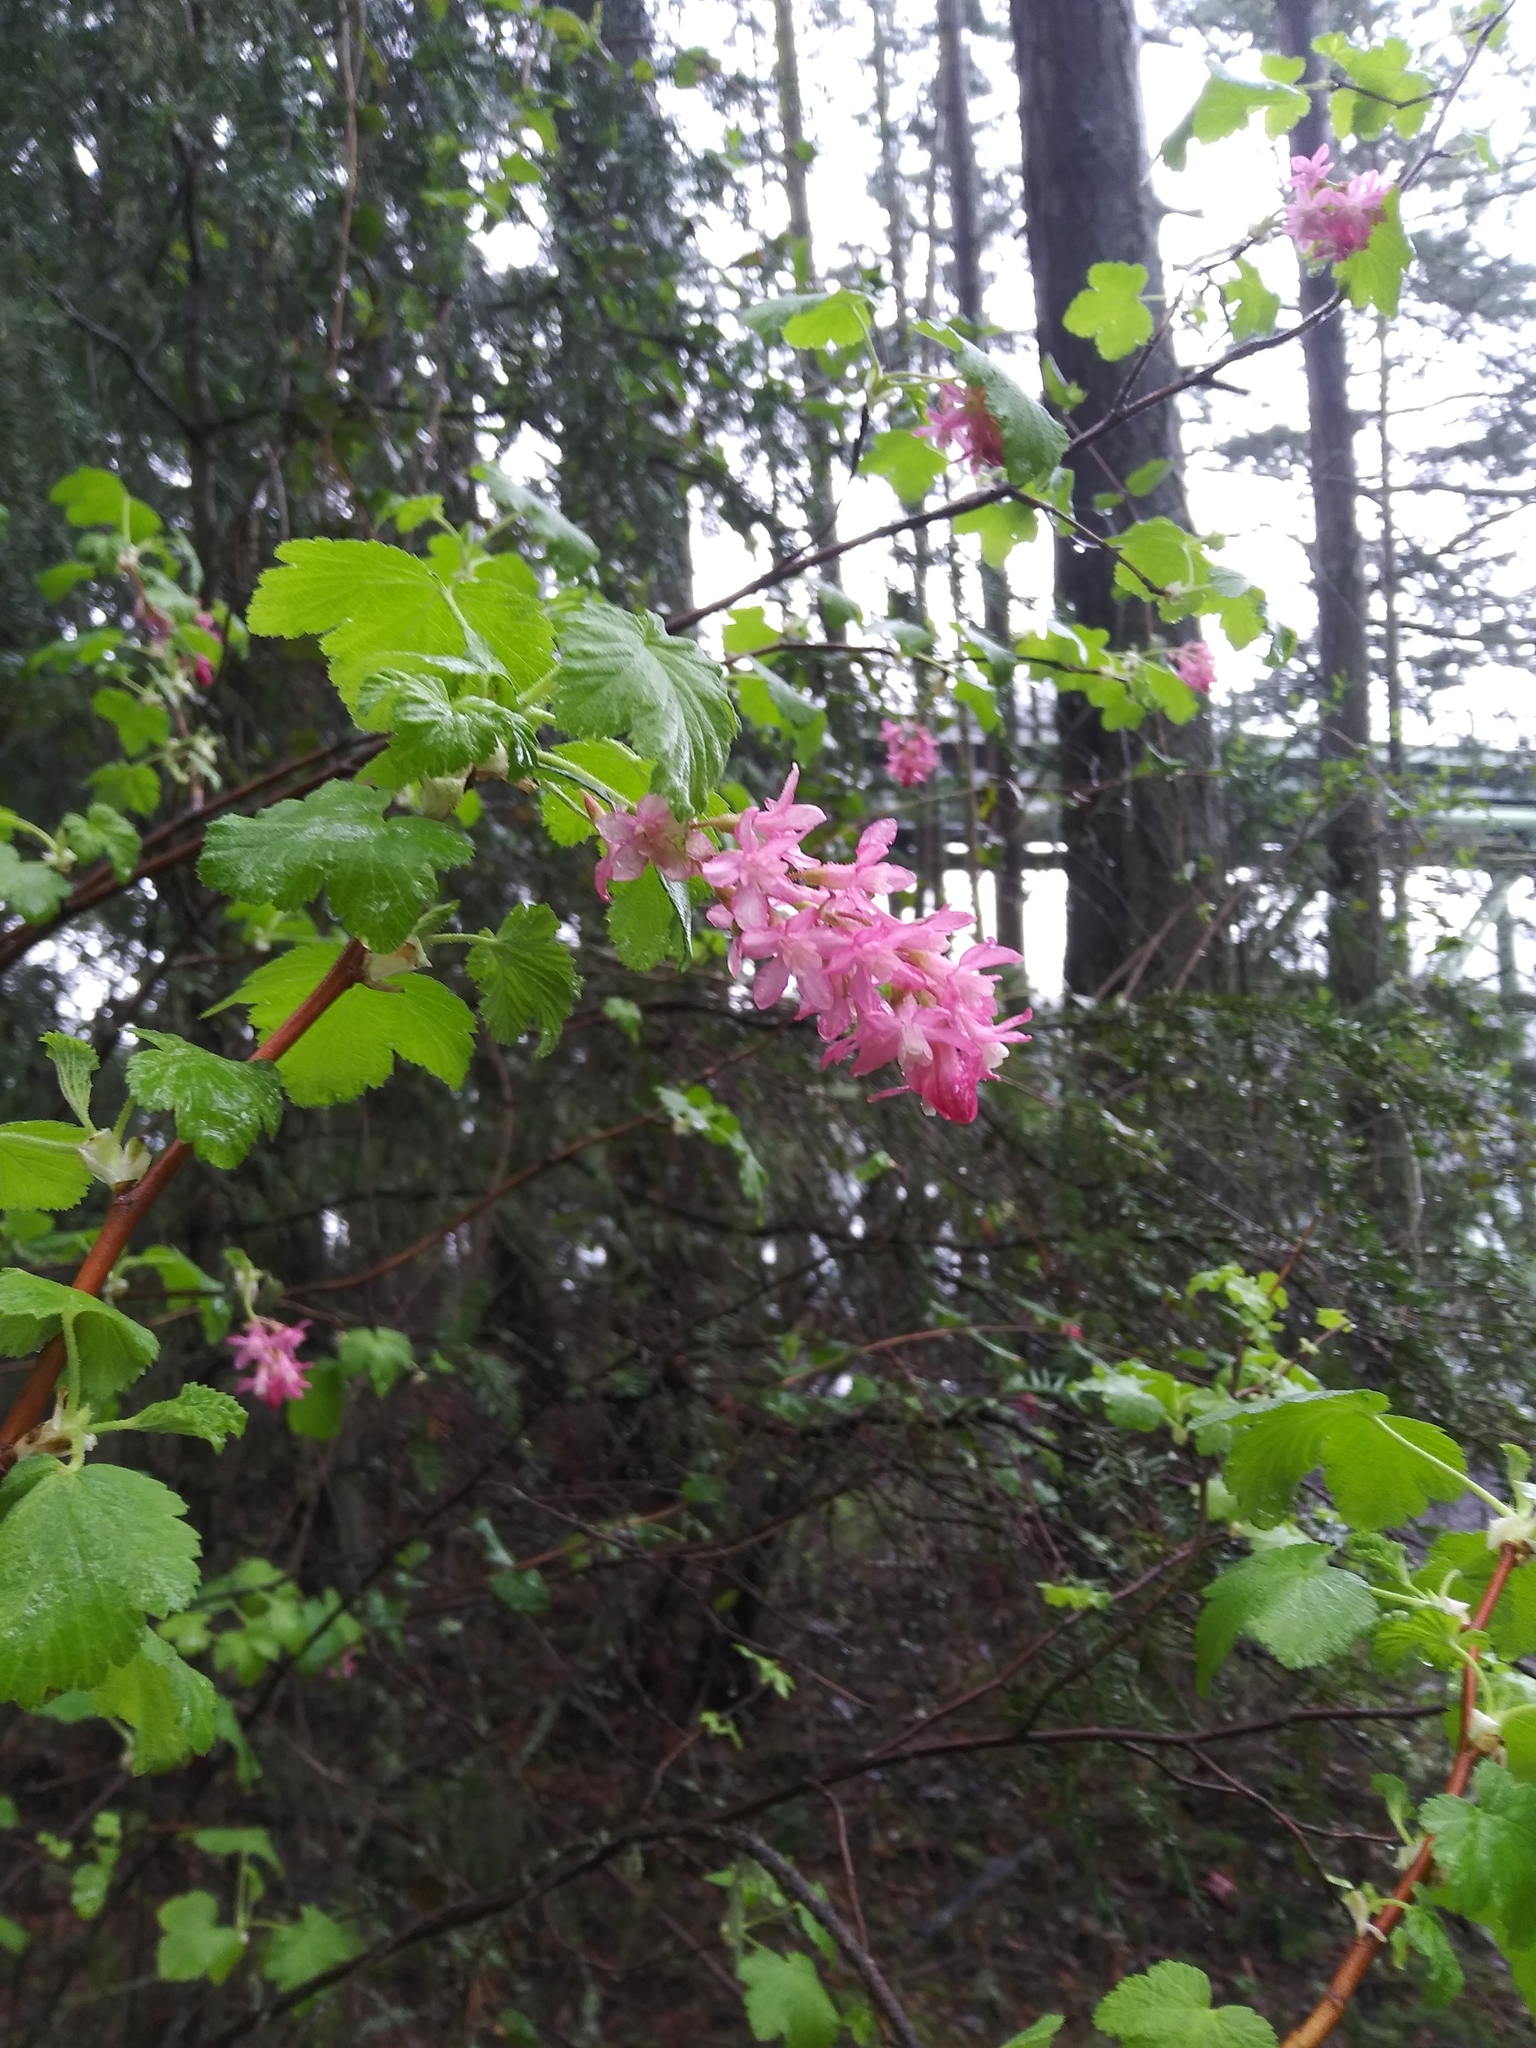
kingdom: Plantae
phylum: Tracheophyta
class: Magnoliopsida
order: Saxifragales
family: Grossulariaceae
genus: Ribes
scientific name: Ribes sanguineum
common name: Flowering currant
